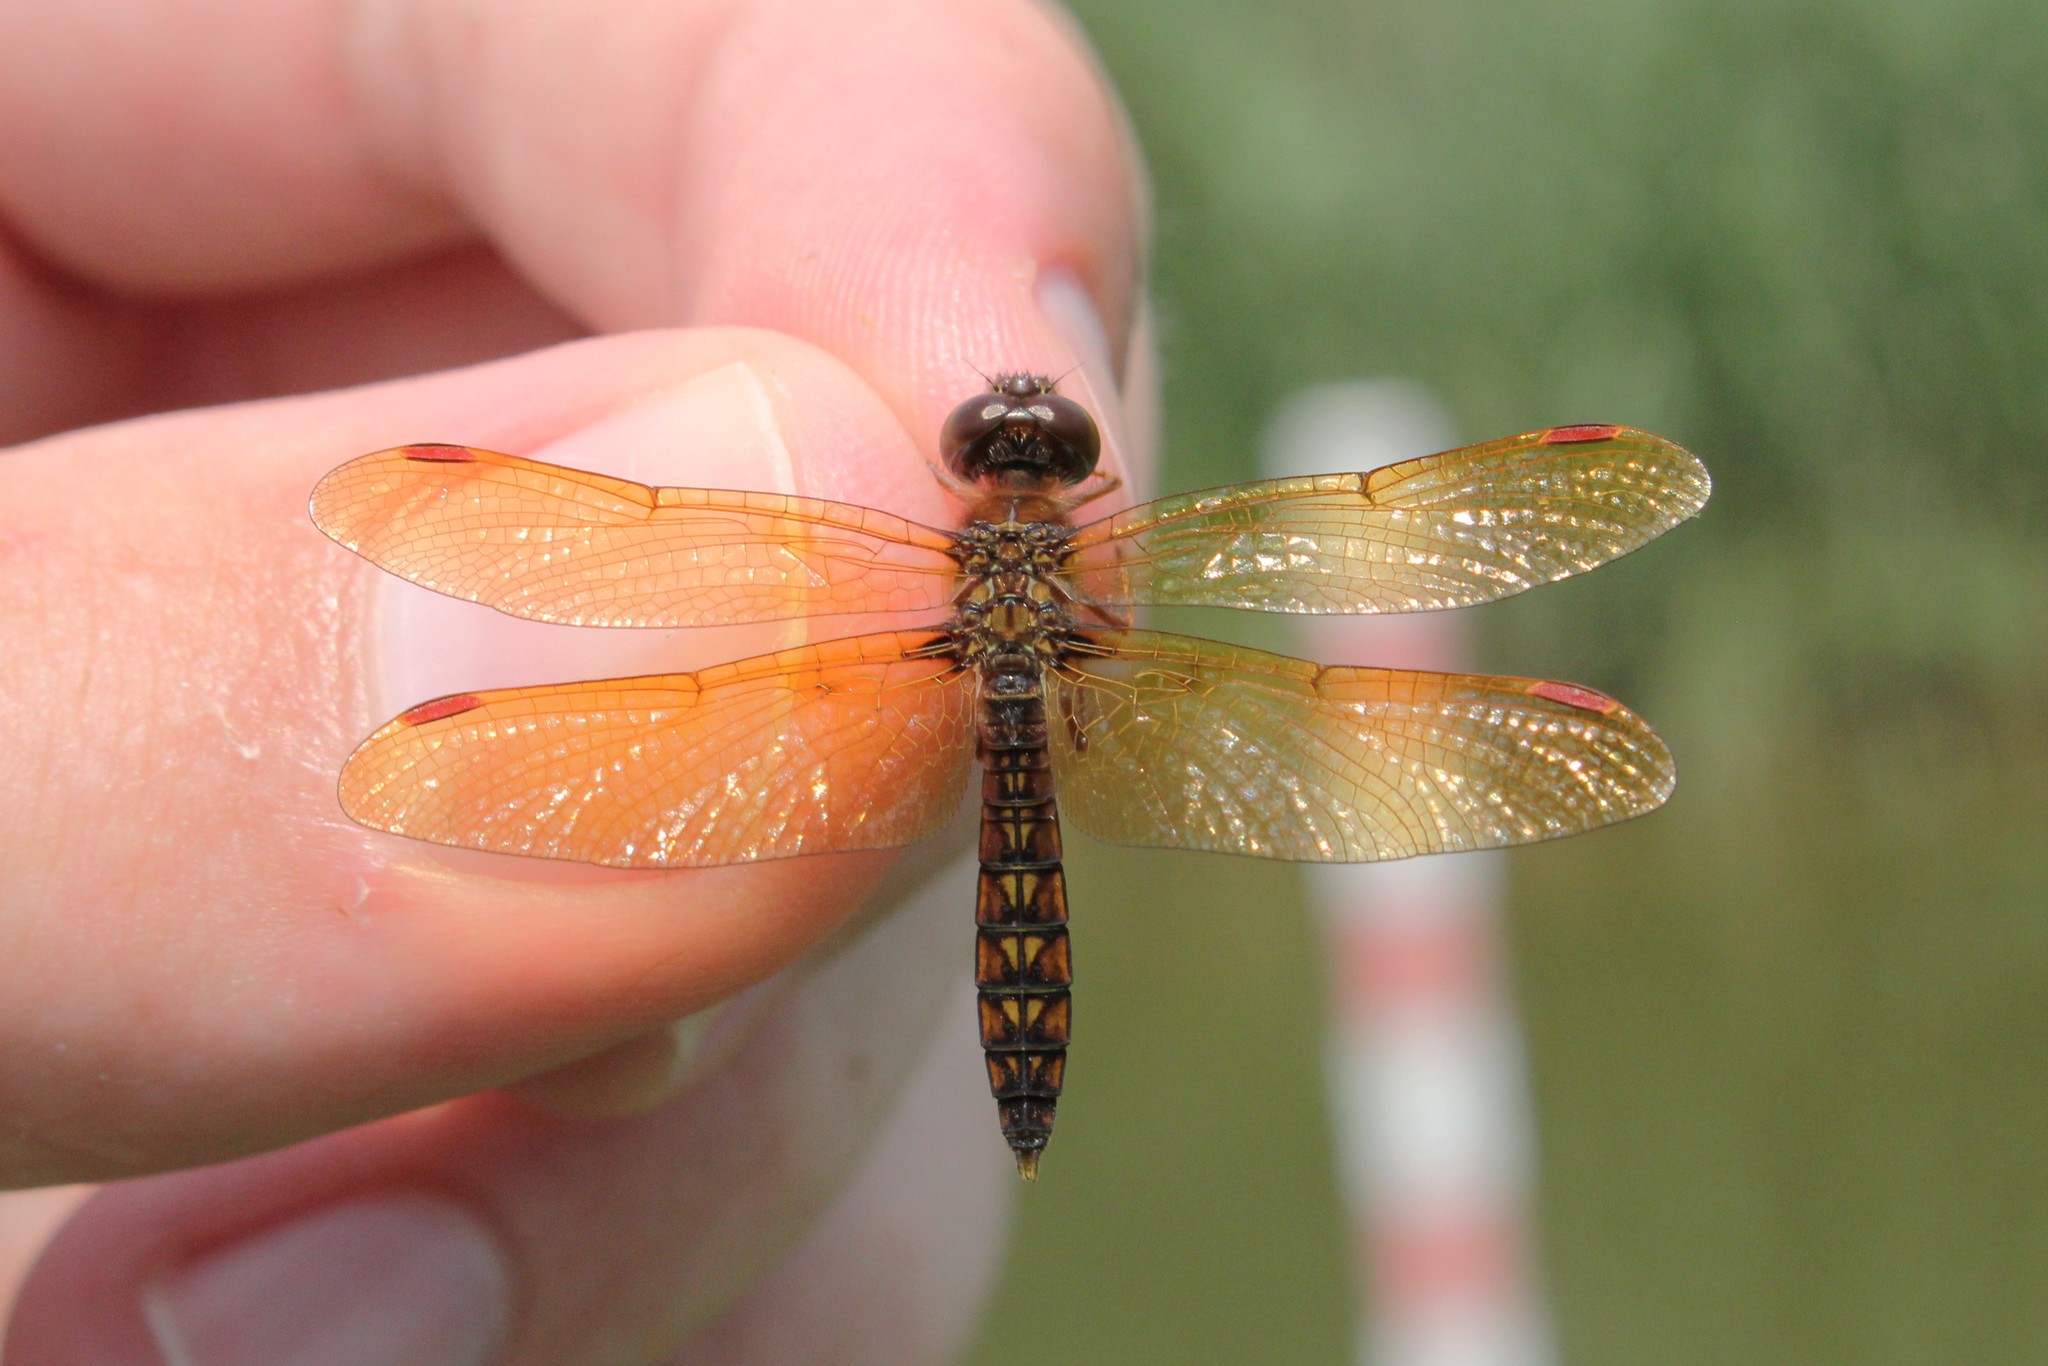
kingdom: Animalia
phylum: Arthropoda
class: Insecta
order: Odonata
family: Libellulidae
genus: Perithemis
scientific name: Perithemis tenera
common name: Eastern amberwing
